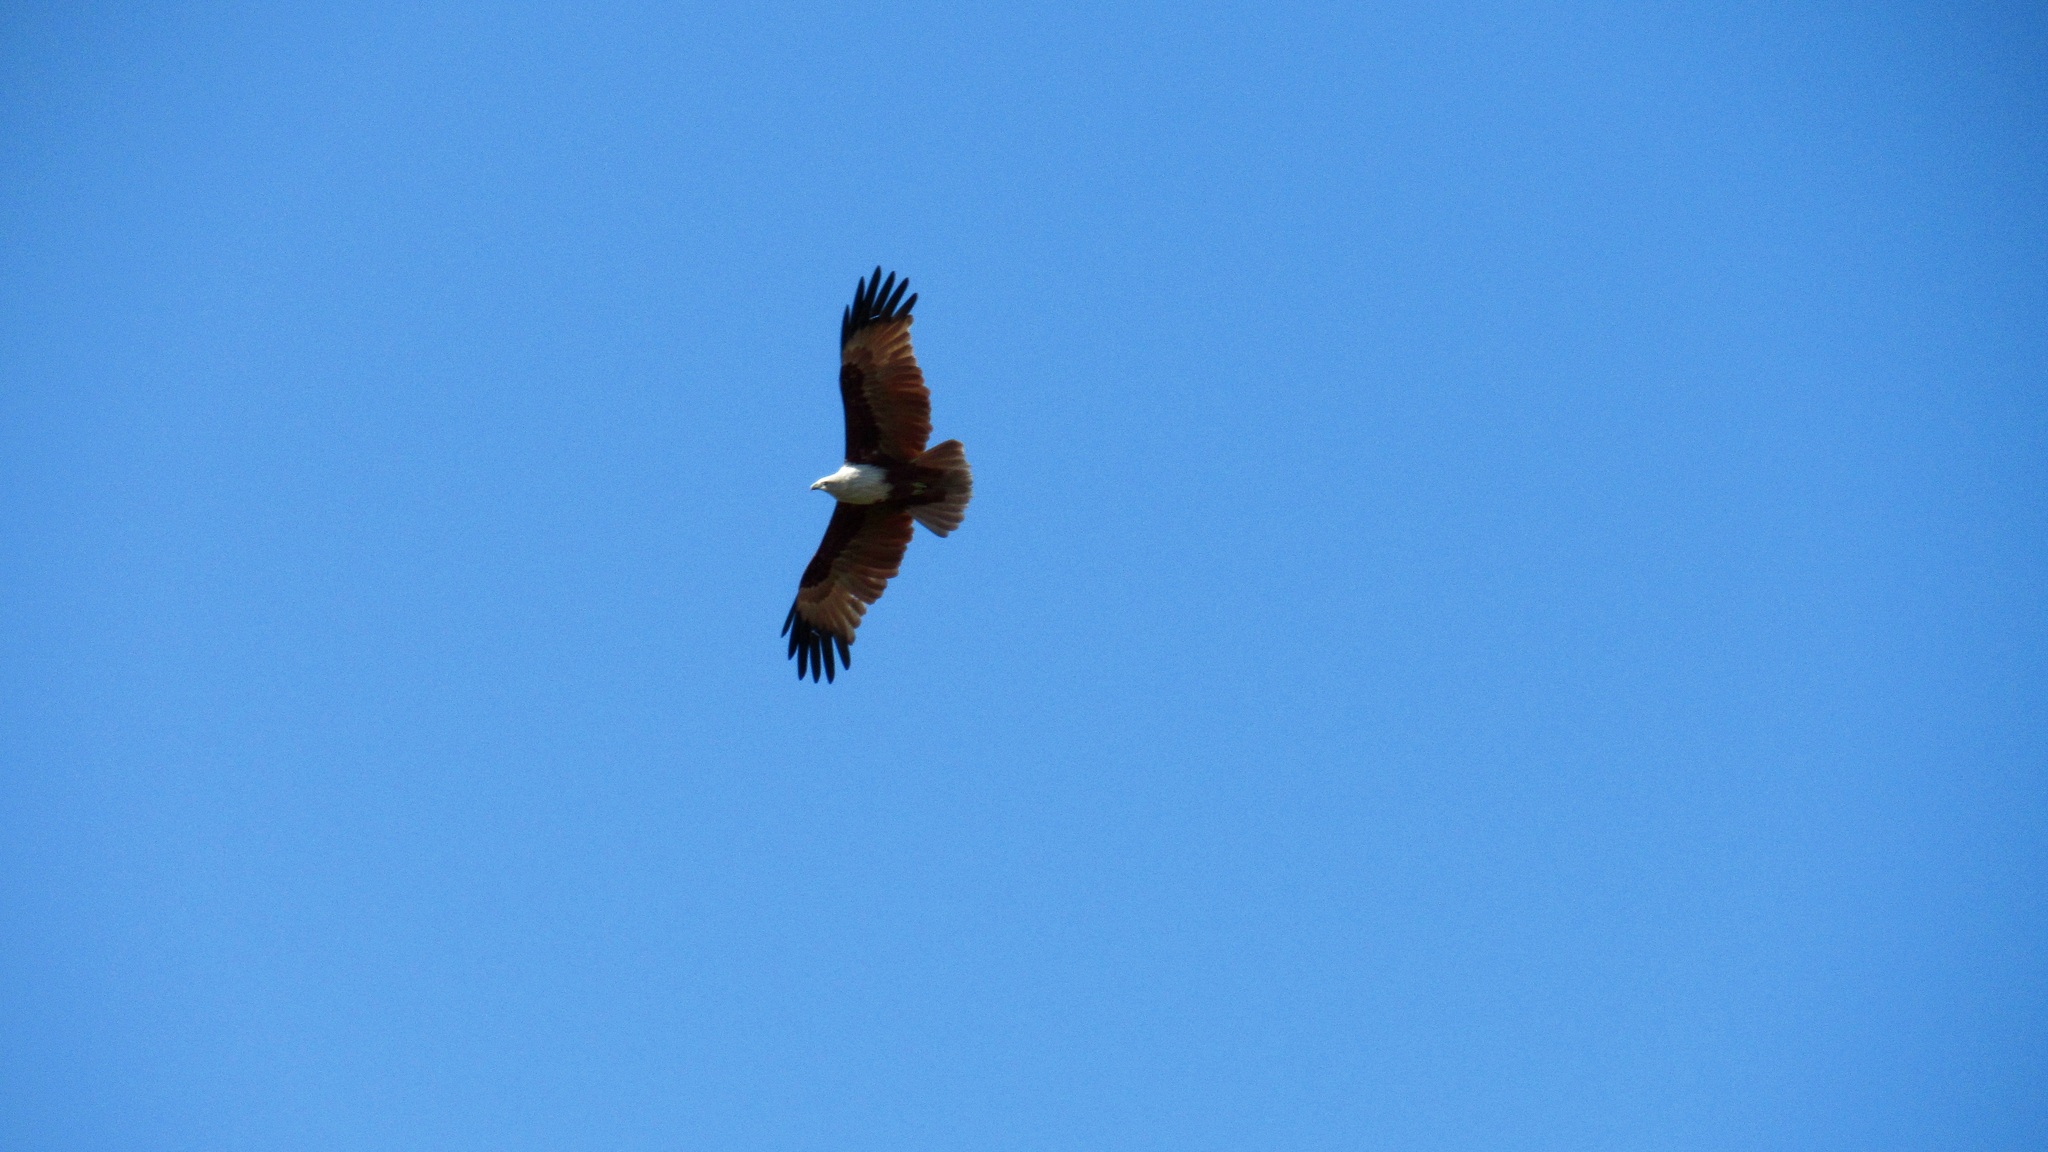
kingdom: Animalia
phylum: Chordata
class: Aves
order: Accipitriformes
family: Accipitridae
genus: Haliastur
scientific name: Haliastur indus
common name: Brahminy kite
